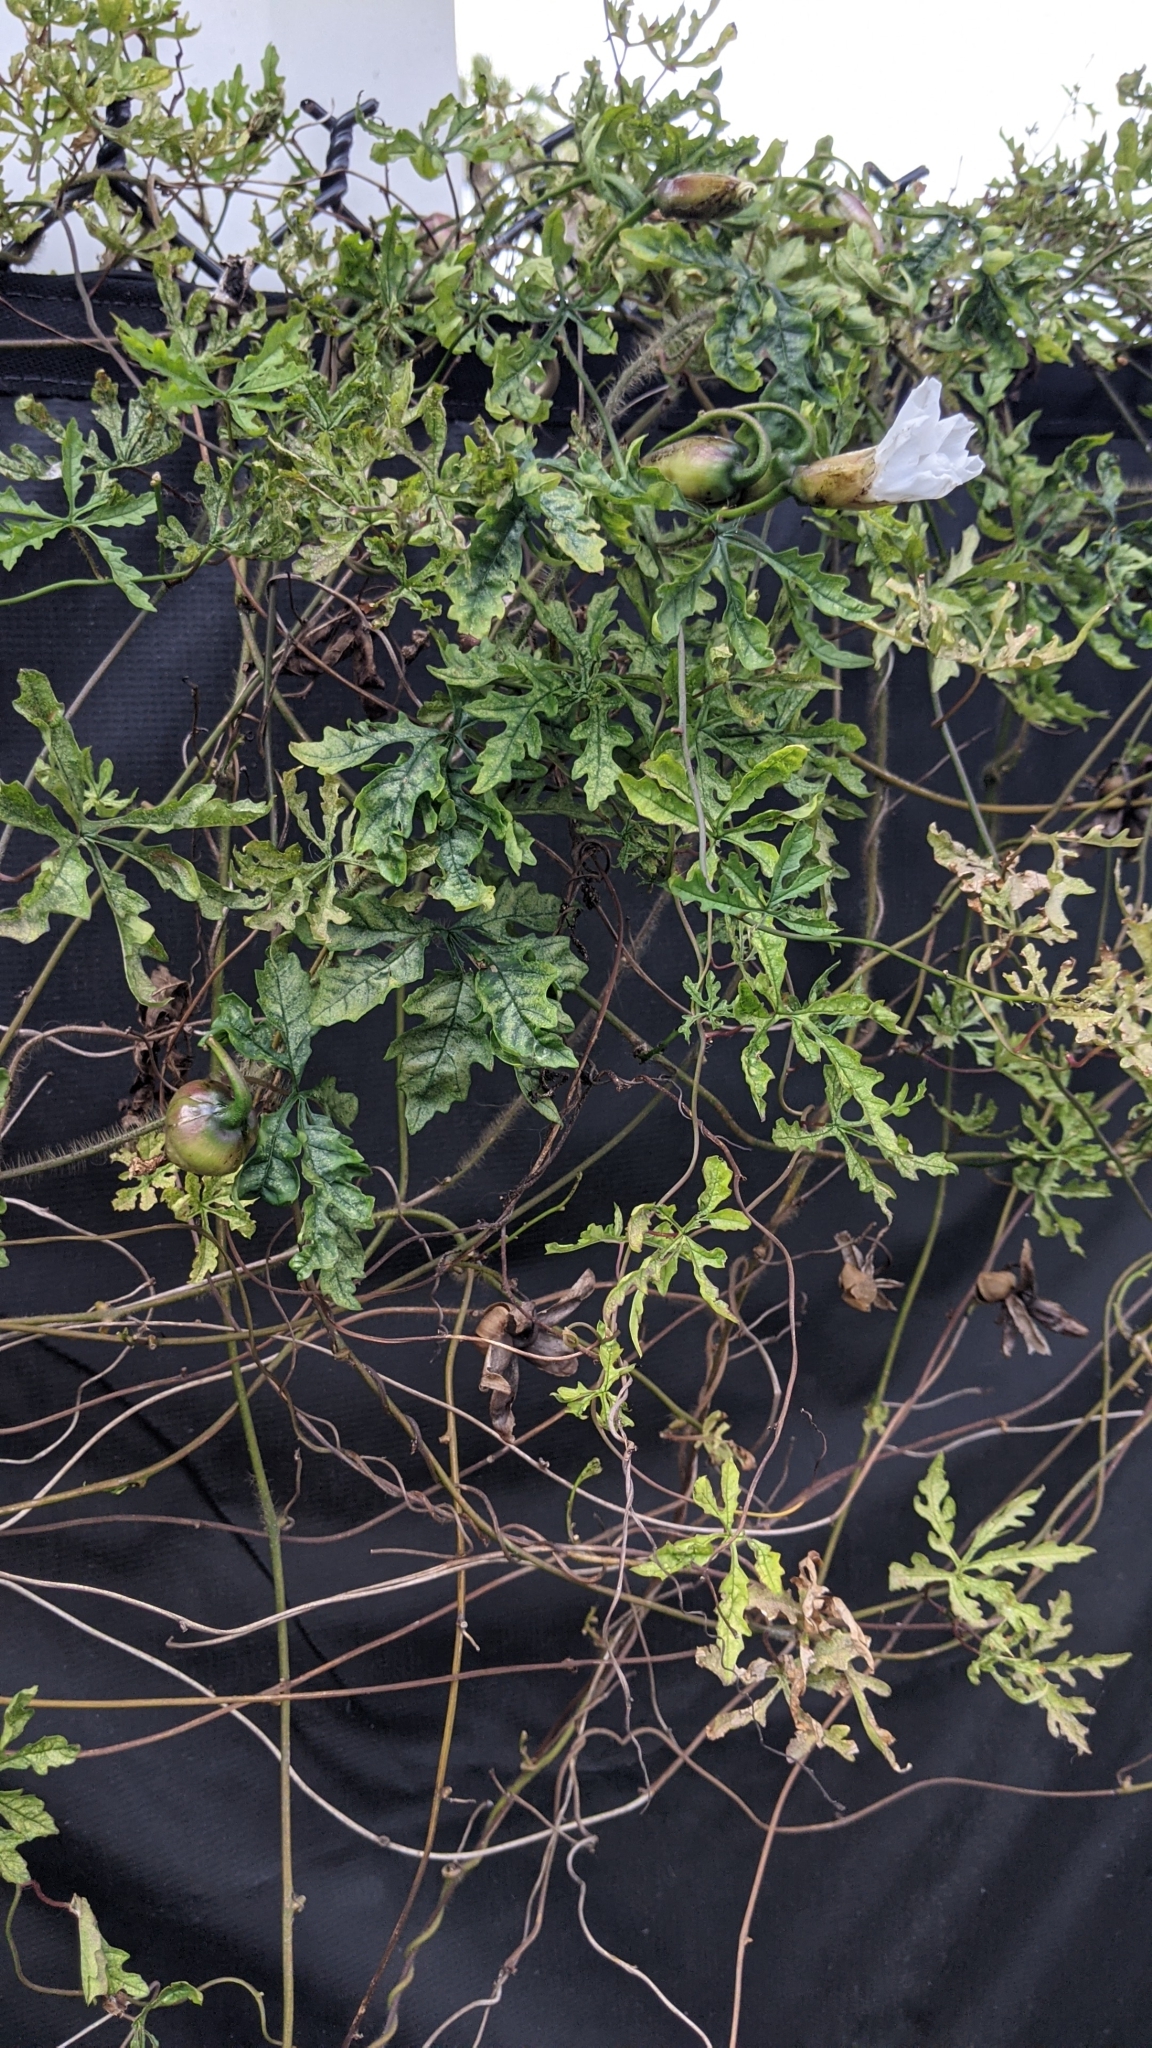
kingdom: Plantae
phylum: Tracheophyta
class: Magnoliopsida
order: Solanales
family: Convolvulaceae
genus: Distimake
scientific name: Distimake dissectus
